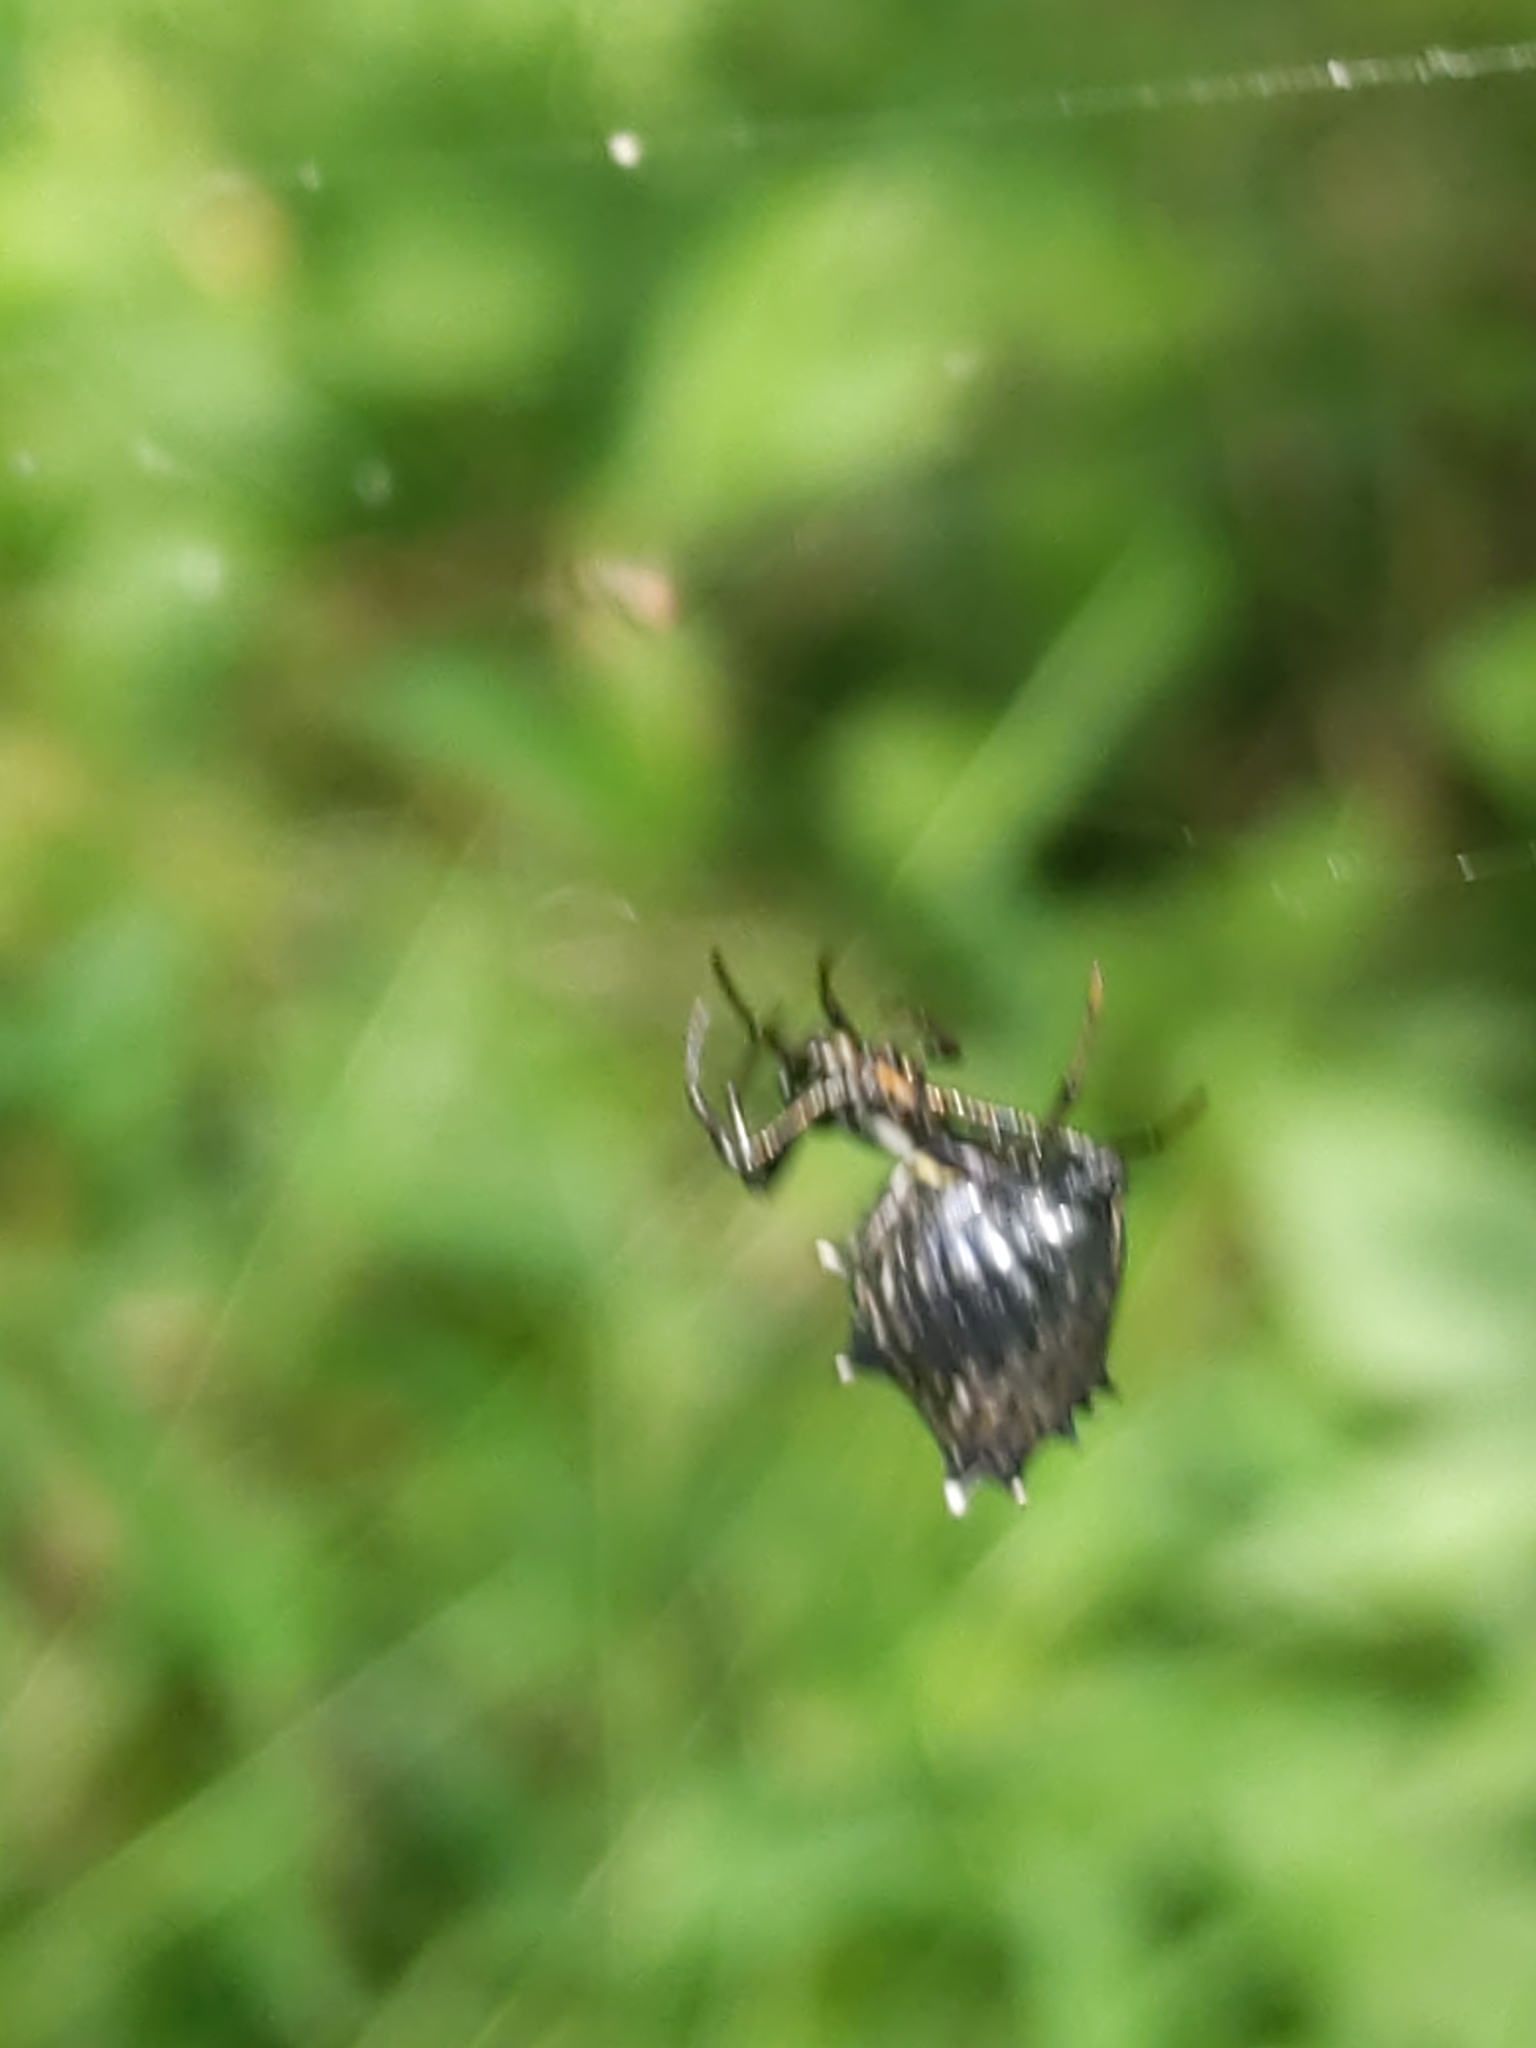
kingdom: Animalia
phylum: Arthropoda
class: Arachnida
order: Araneae
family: Araneidae
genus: Micrathena
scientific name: Micrathena gracilis
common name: Orb weavers
